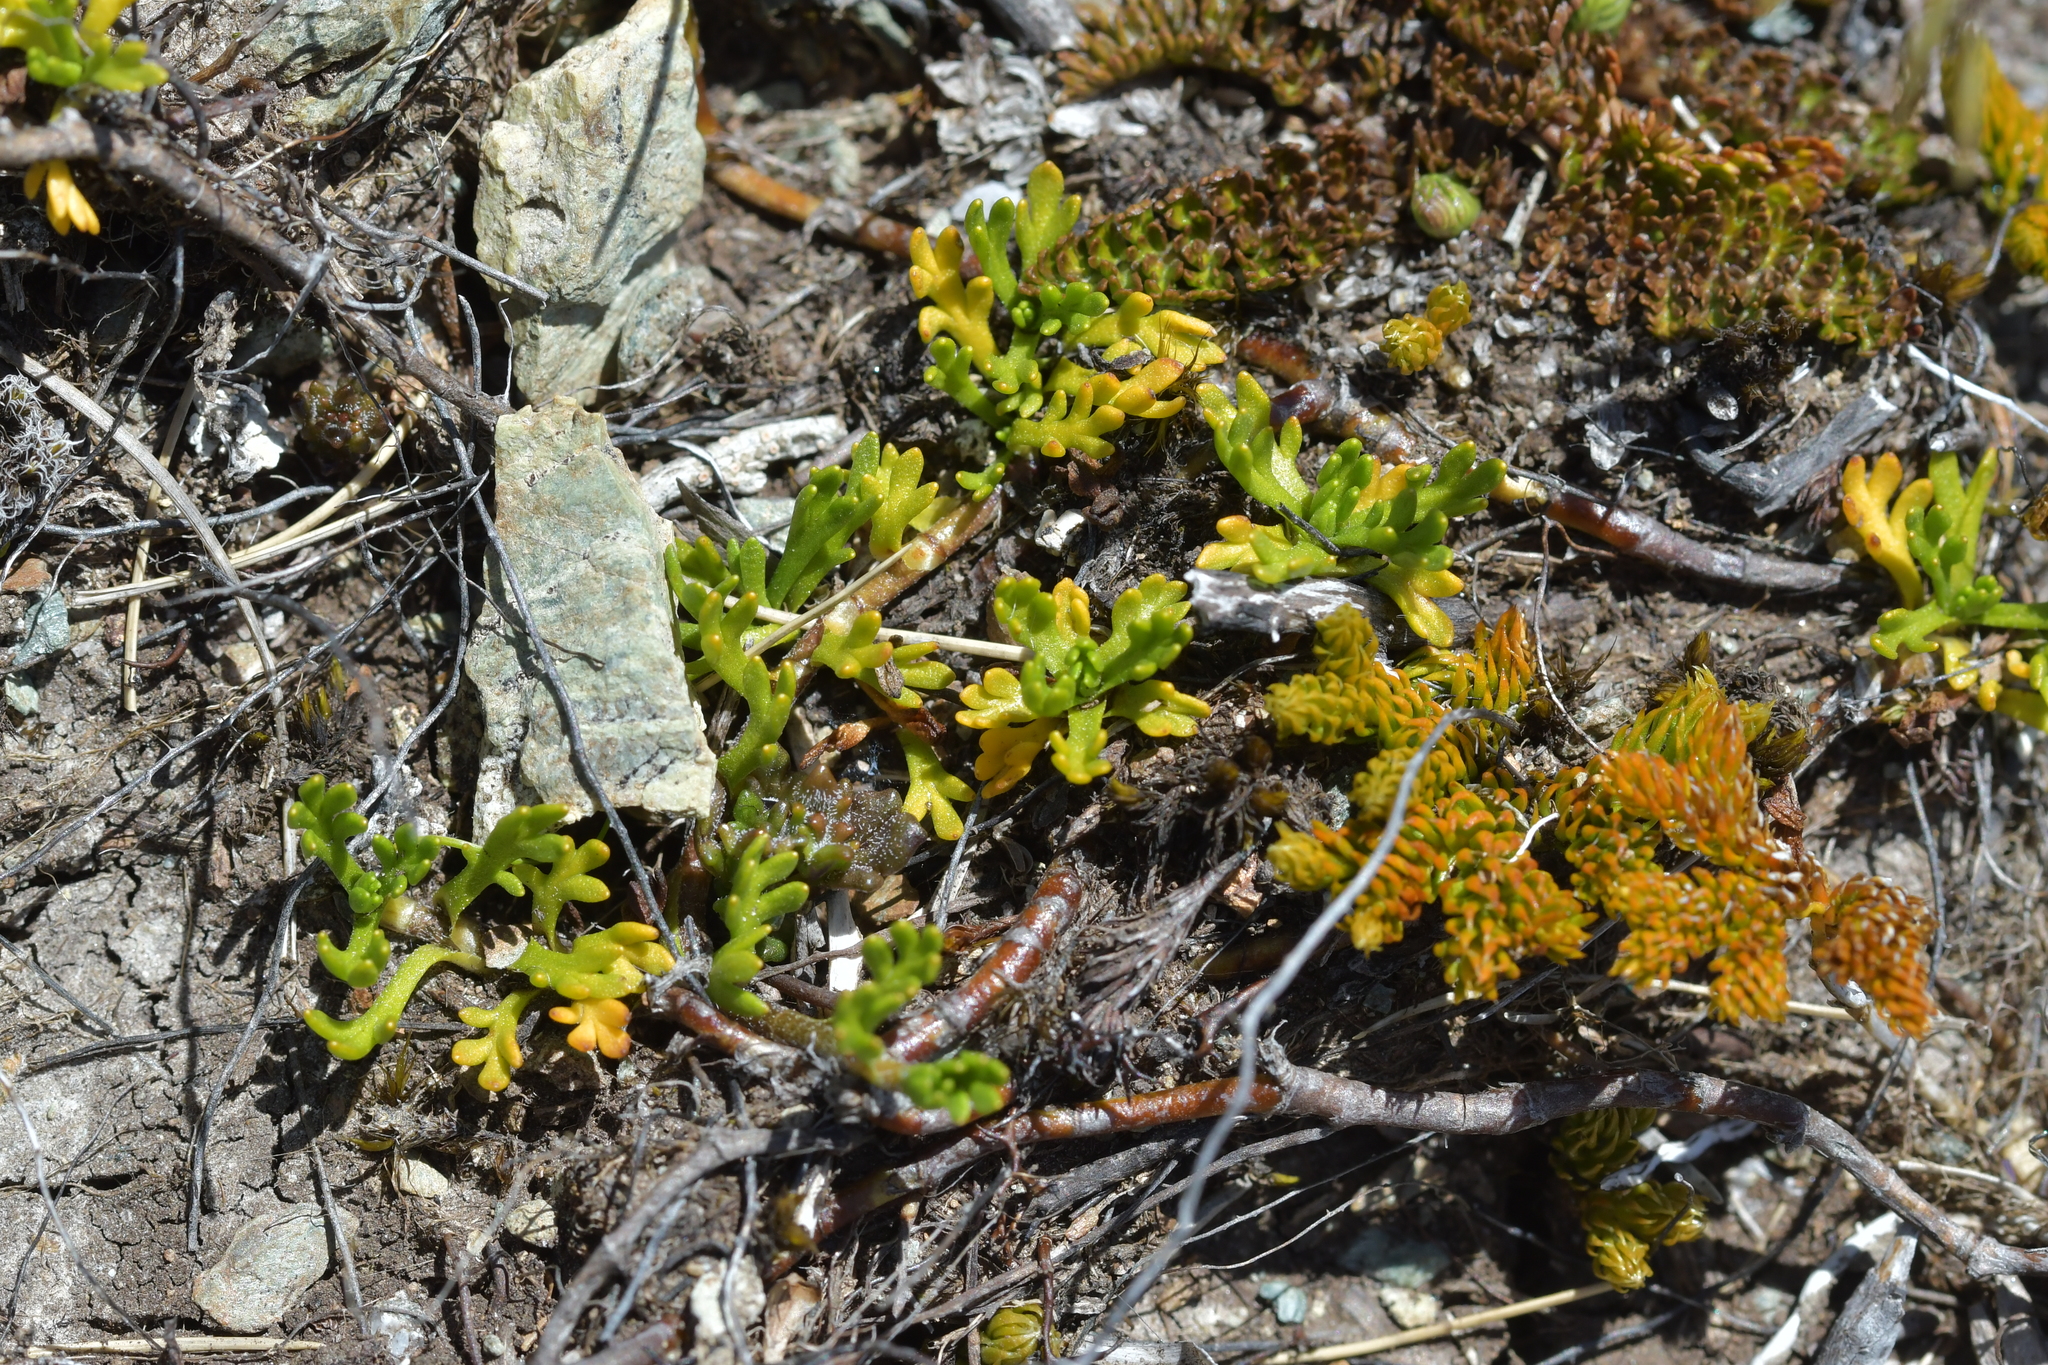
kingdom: Plantae
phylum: Tracheophyta
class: Magnoliopsida
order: Asterales
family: Asteraceae
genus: Leptinella
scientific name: Leptinella pectinata
